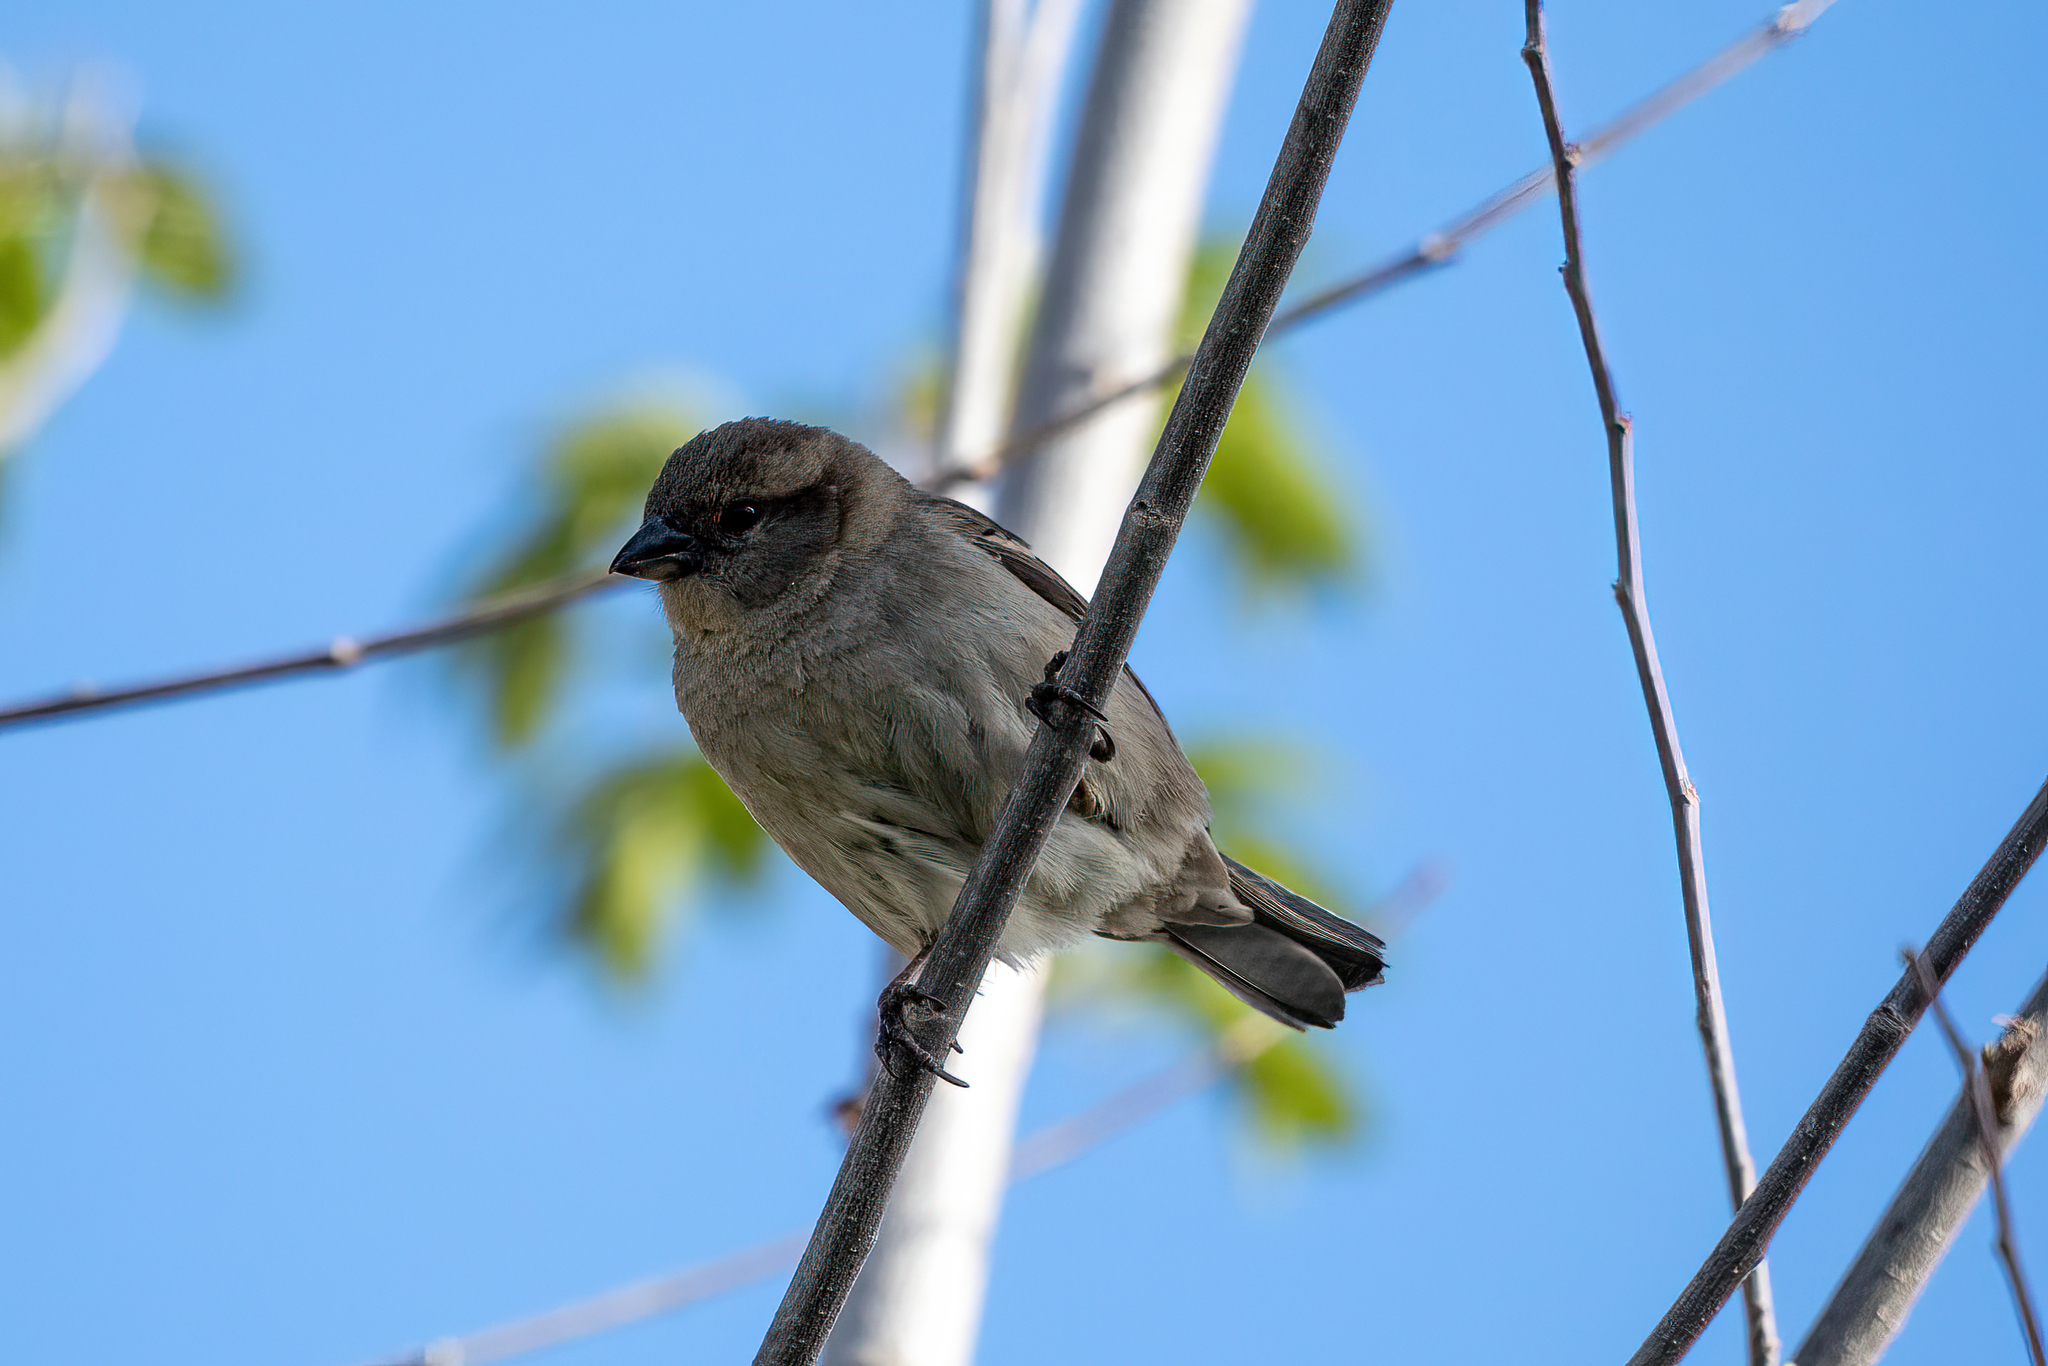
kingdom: Animalia
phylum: Chordata
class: Aves
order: Passeriformes
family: Passeridae
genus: Passer
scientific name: Passer domesticus
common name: House sparrow
